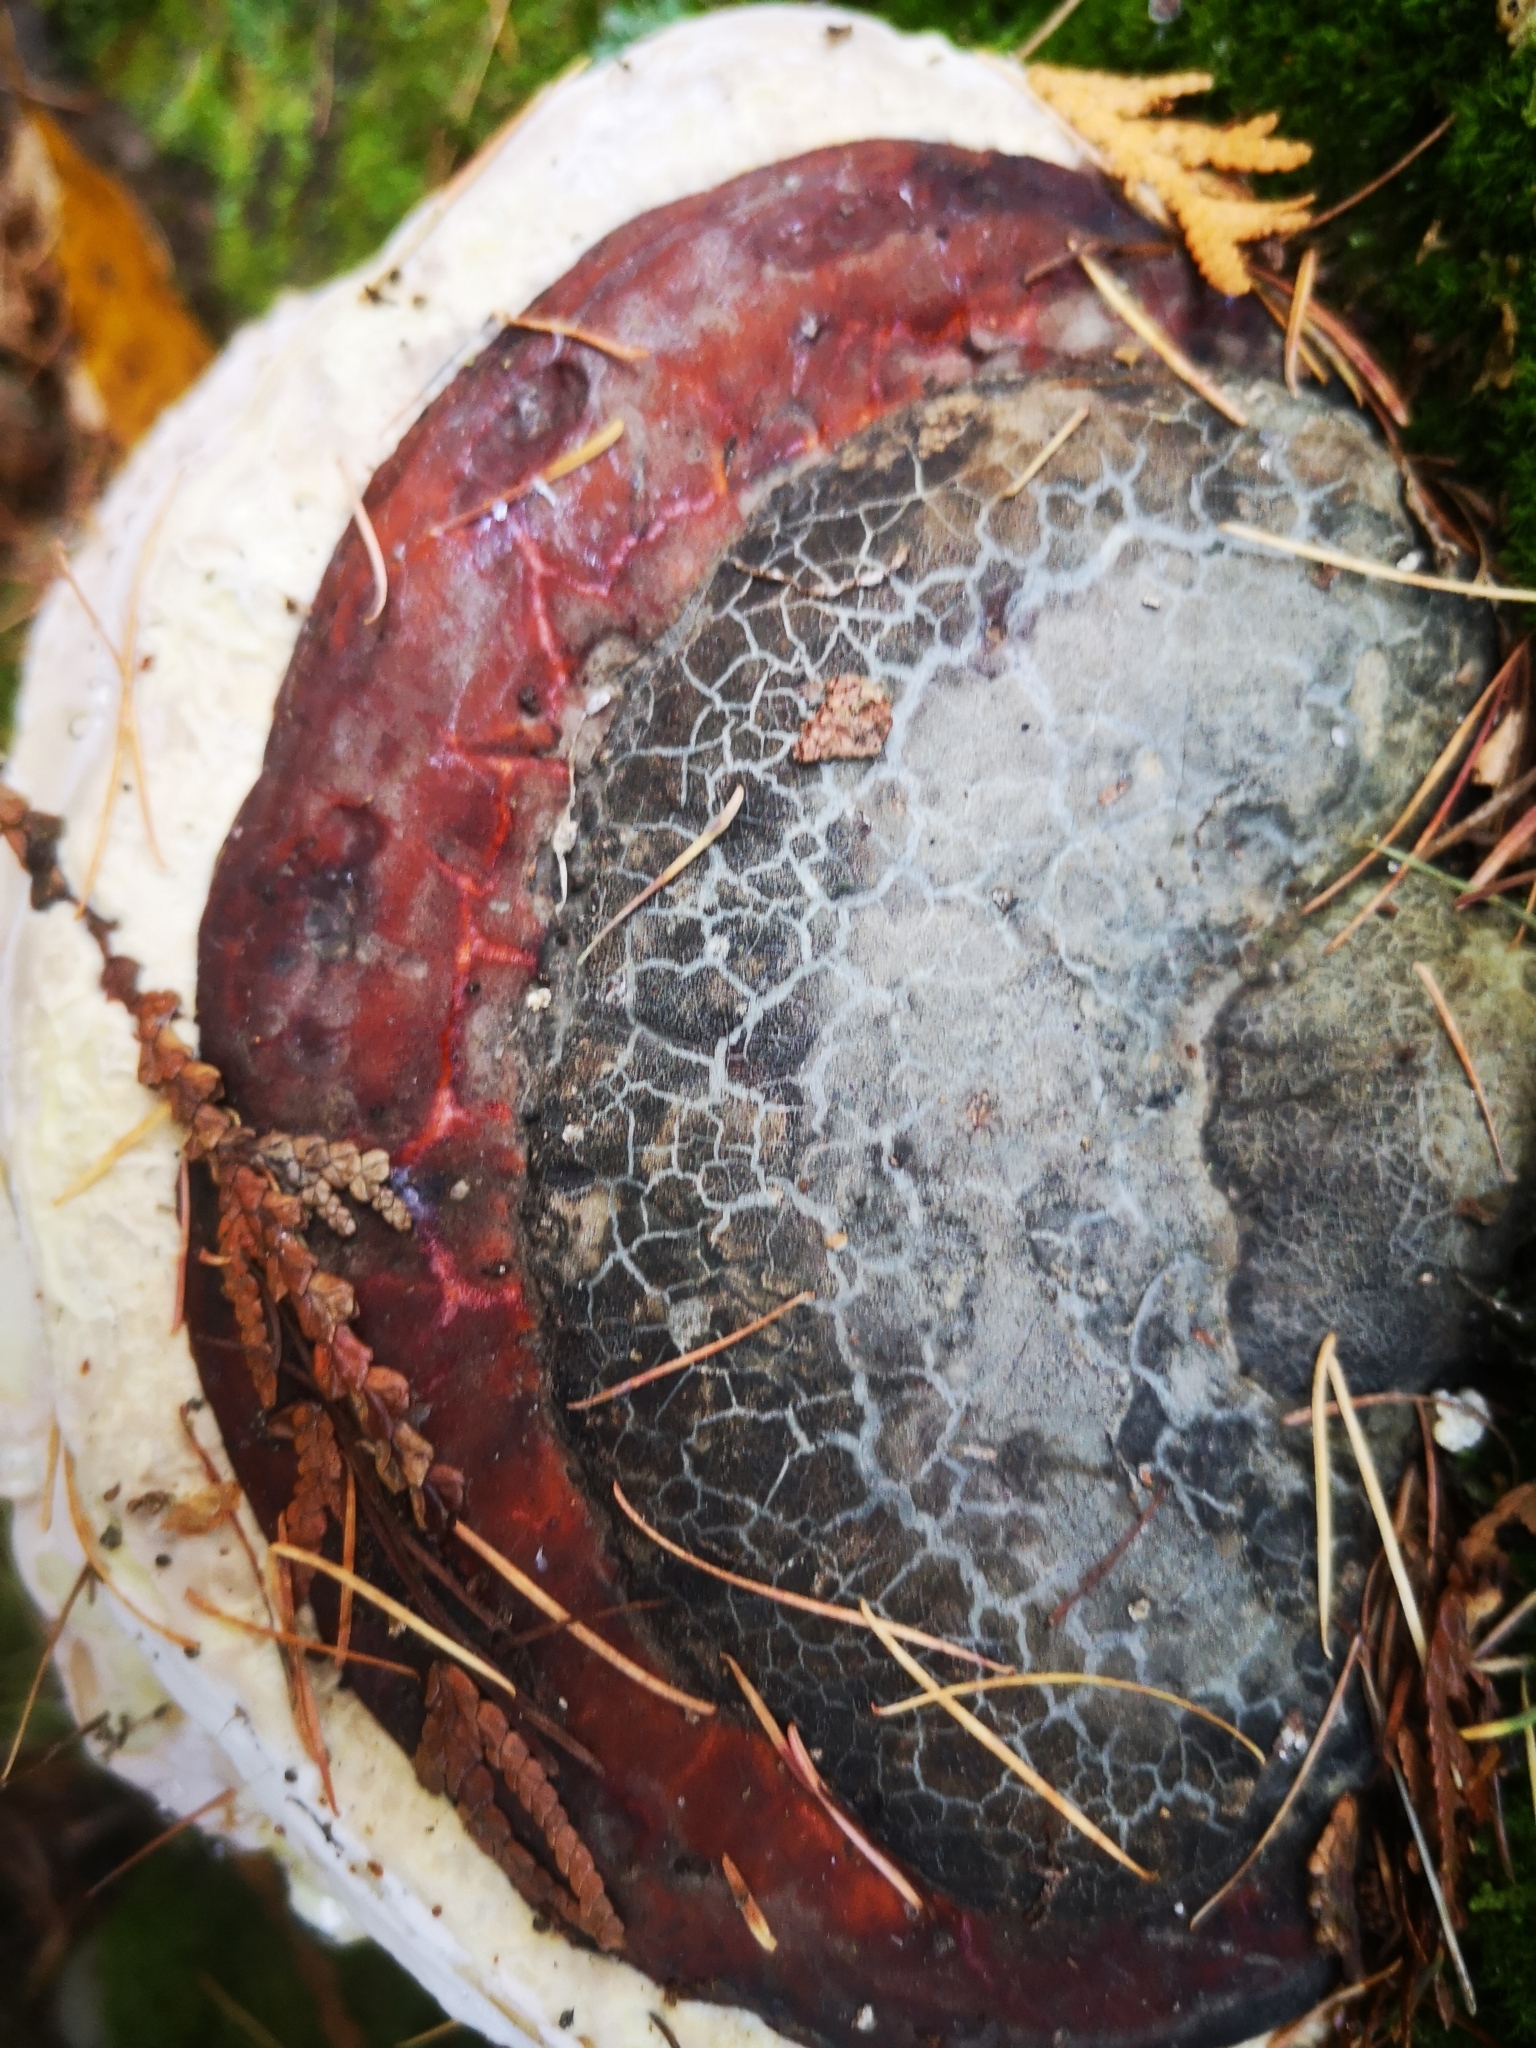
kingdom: Fungi
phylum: Basidiomycota
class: Agaricomycetes
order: Polyporales
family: Fomitopsidaceae
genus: Fomitopsis
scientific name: Fomitopsis mounceae
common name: Northern red belt
